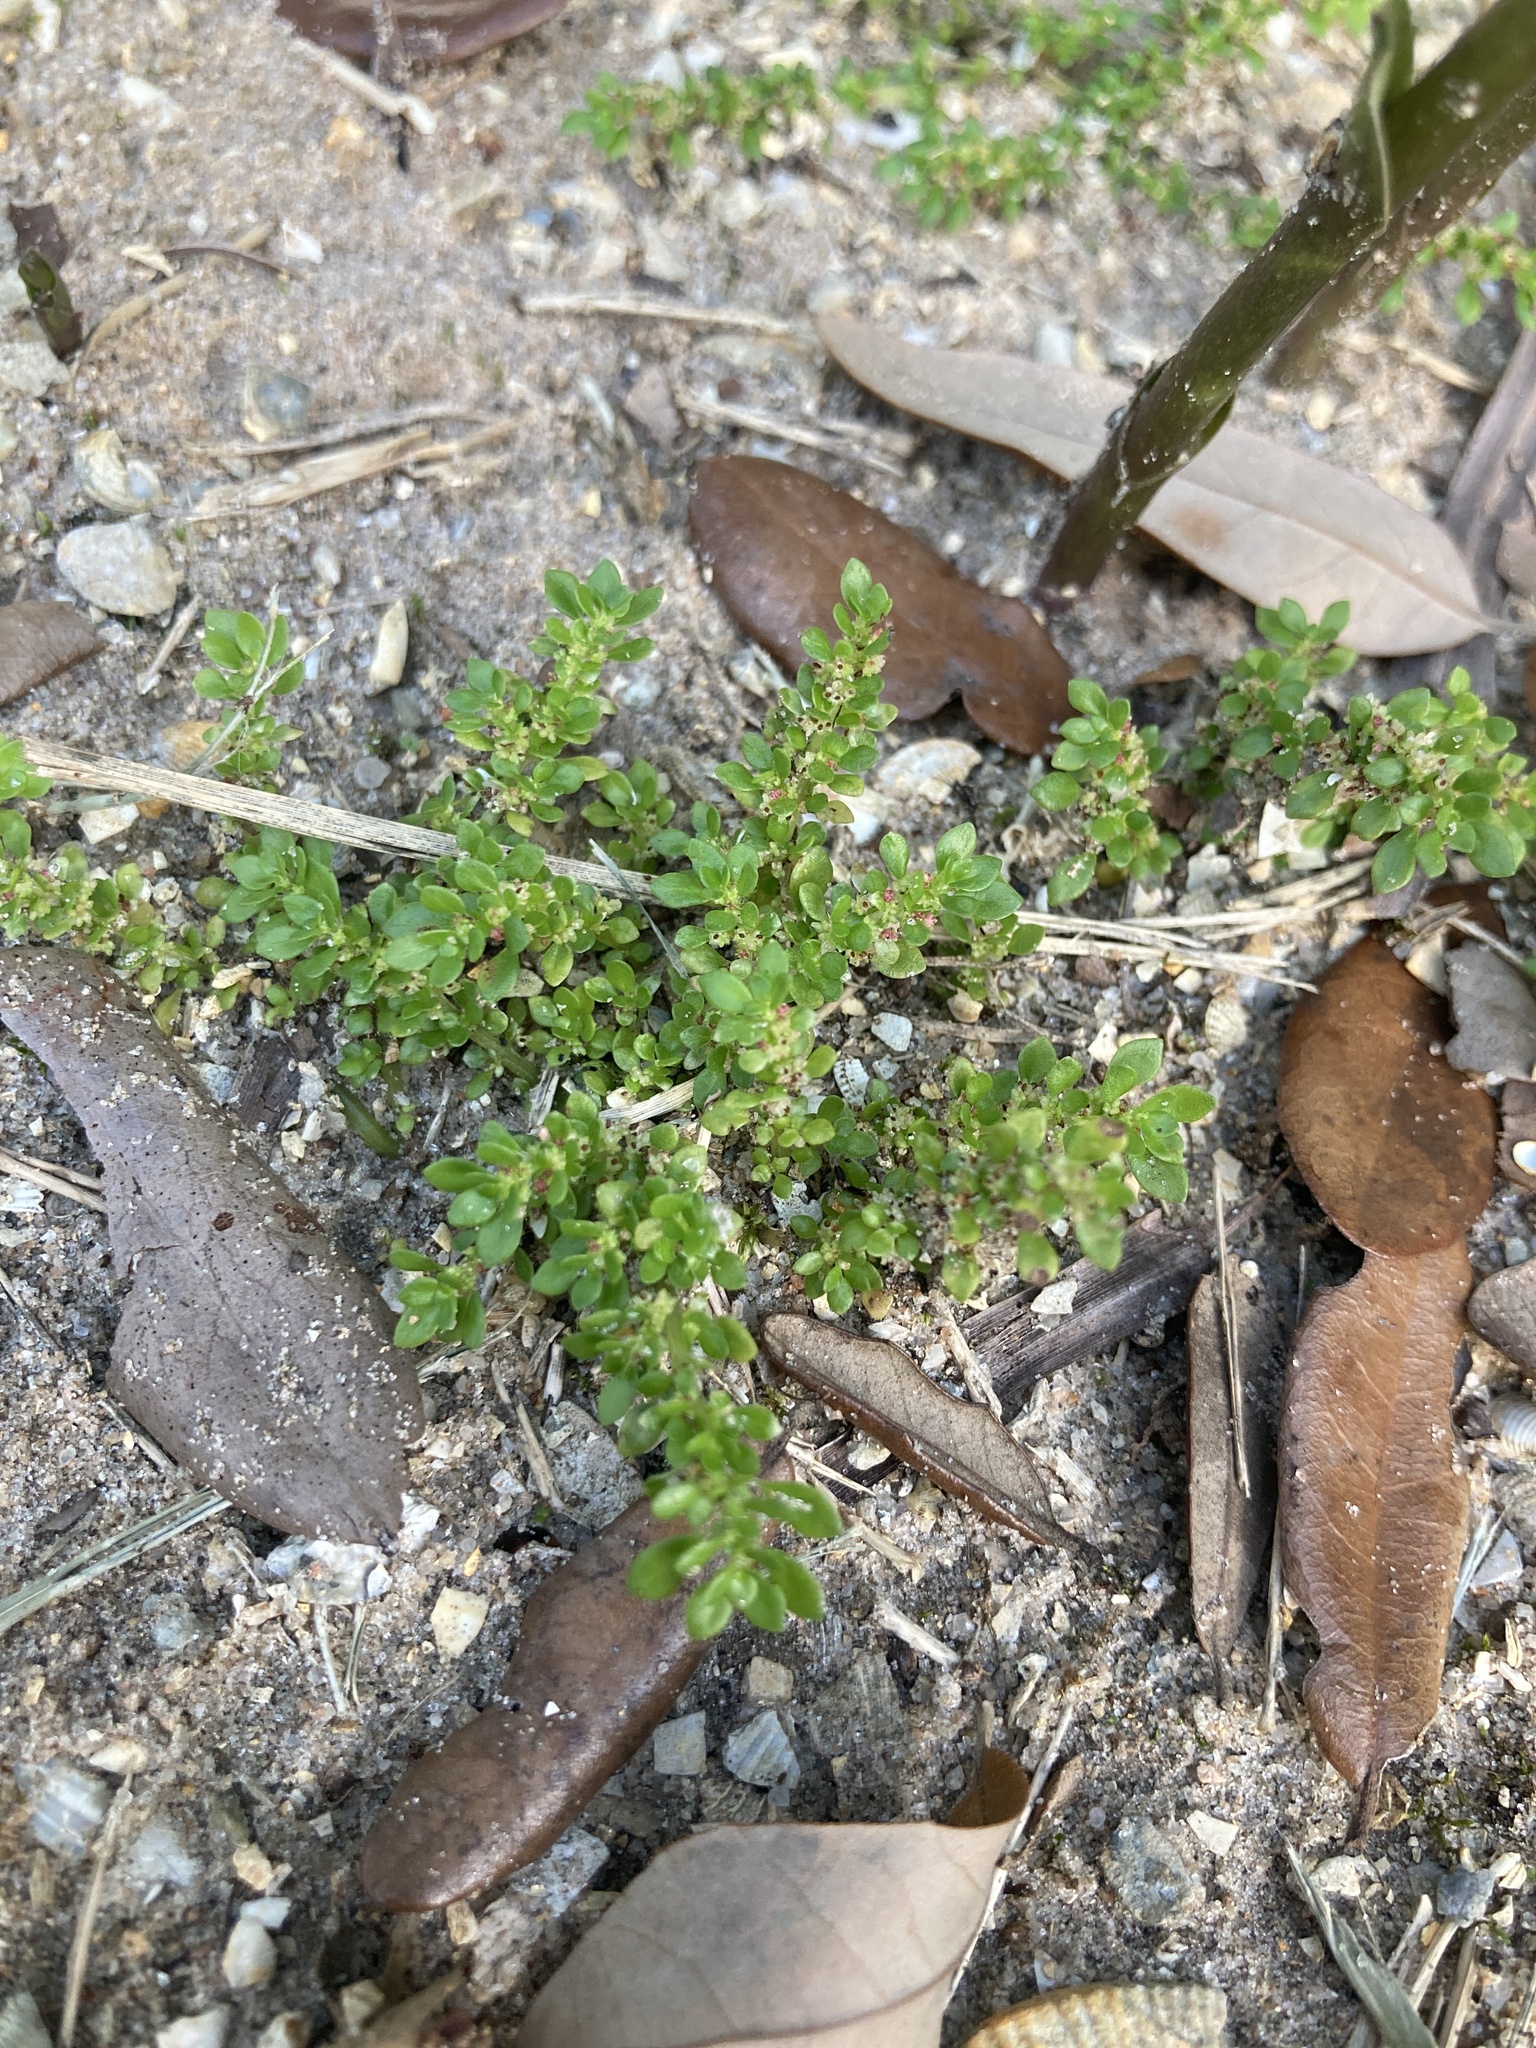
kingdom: Plantae
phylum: Tracheophyta
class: Magnoliopsida
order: Rosales
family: Urticaceae
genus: Pilea
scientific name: Pilea microphylla
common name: Artillery-plant
